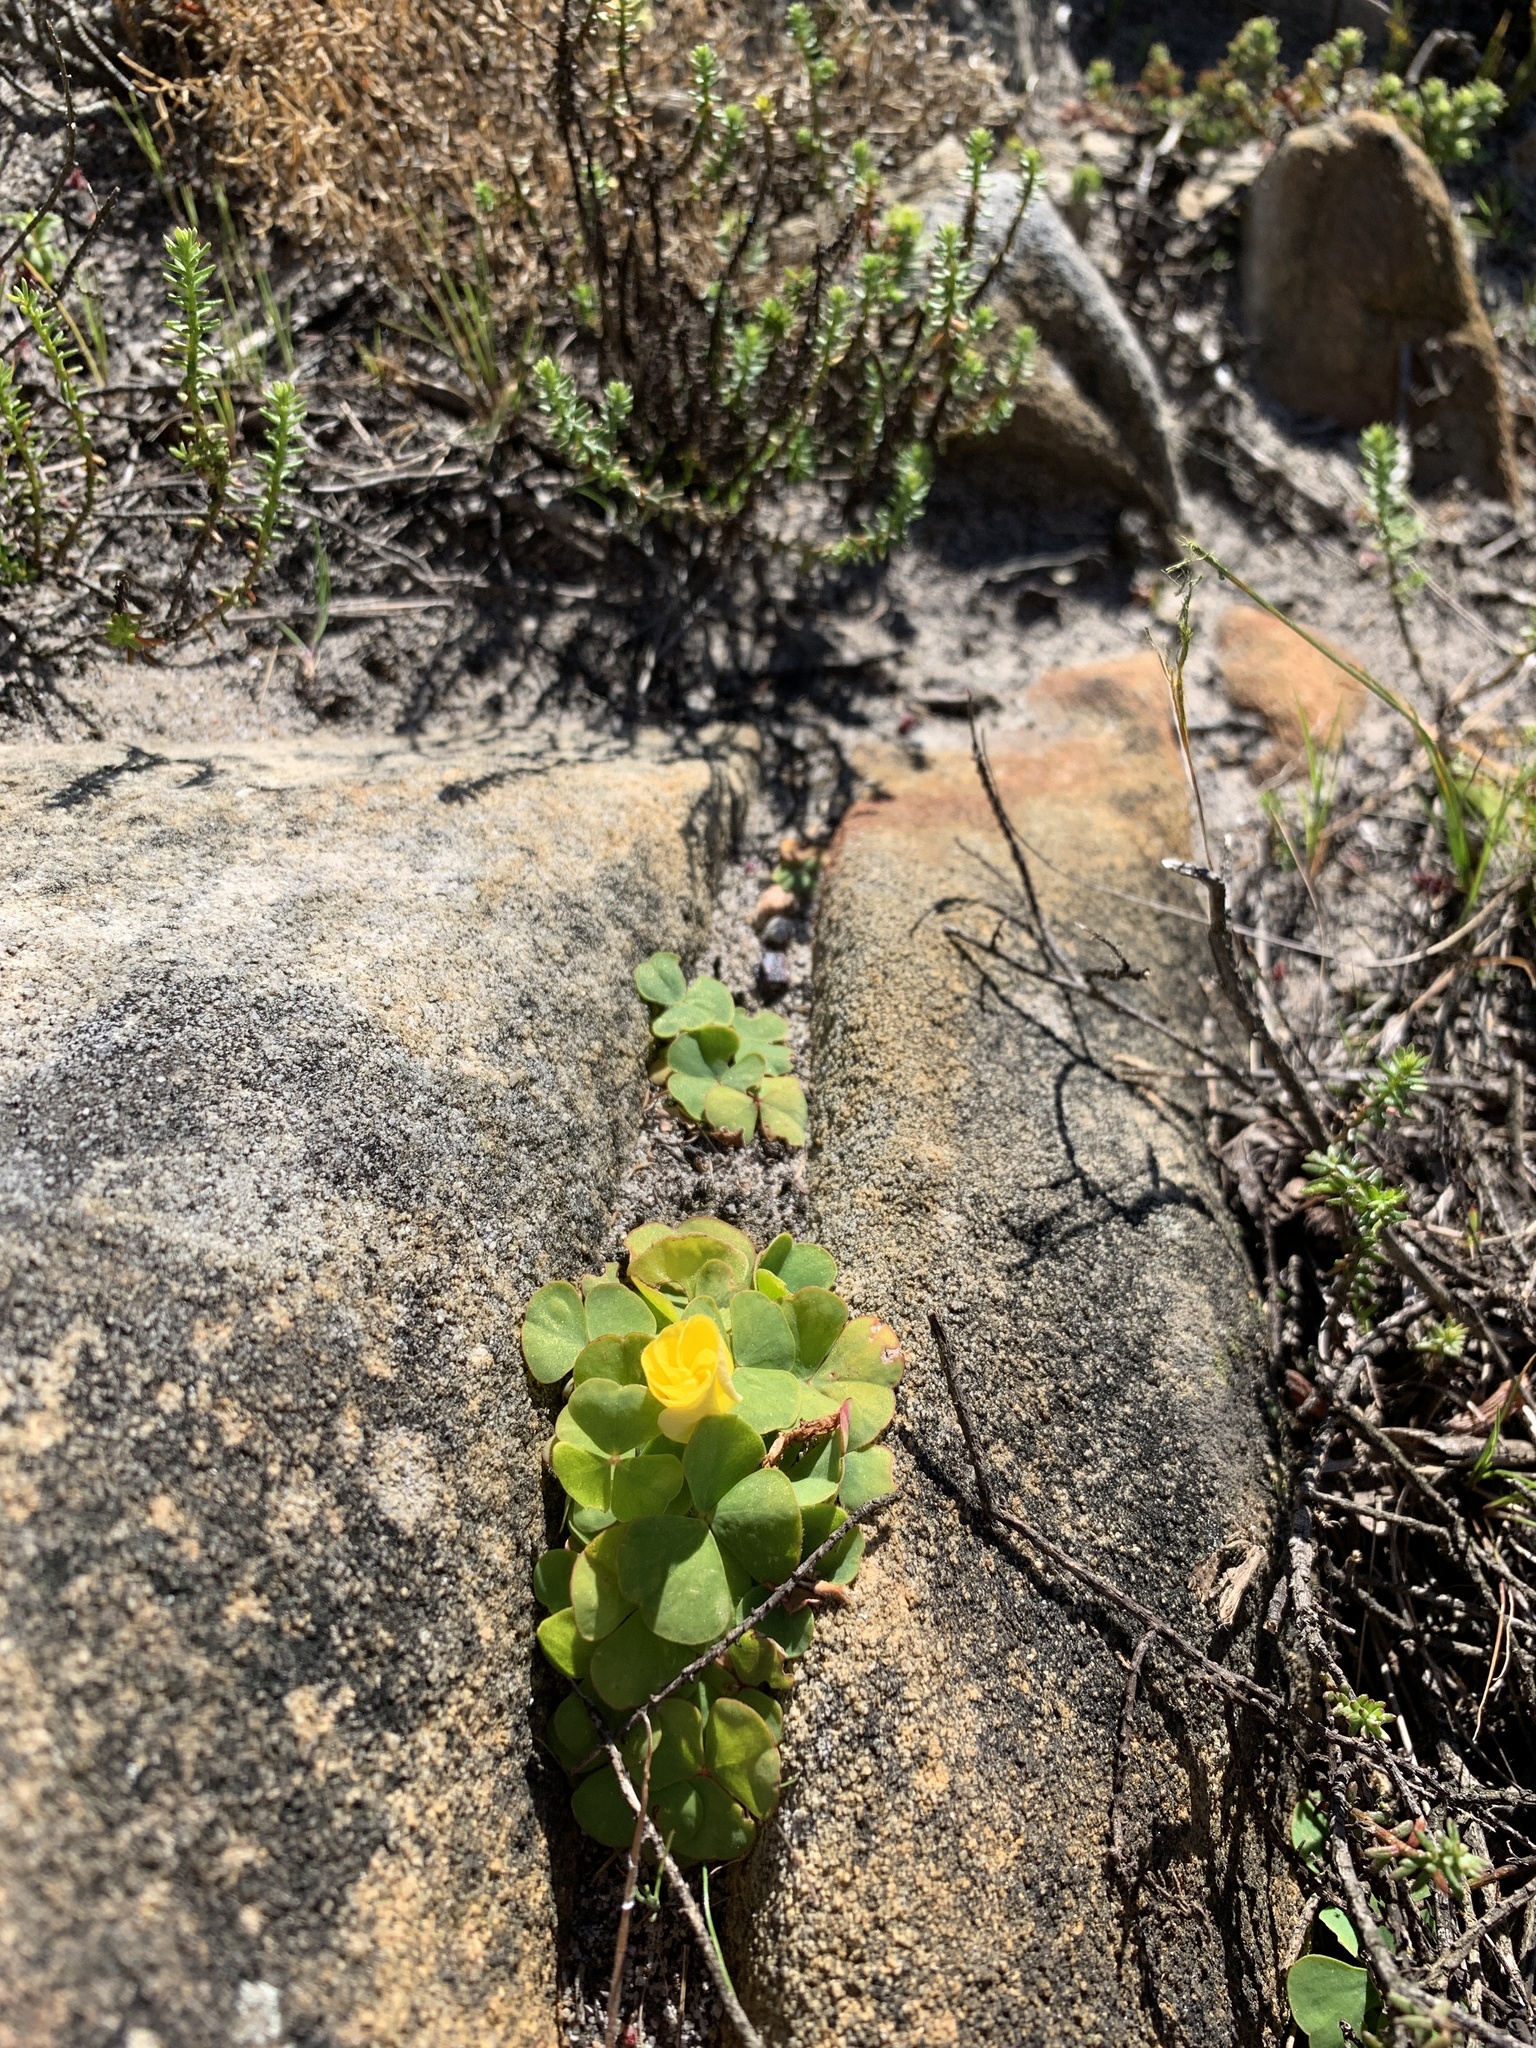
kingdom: Plantae
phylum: Tracheophyta
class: Magnoliopsida
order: Oxalidales
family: Oxalidaceae
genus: Oxalis
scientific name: Oxalis luteola
